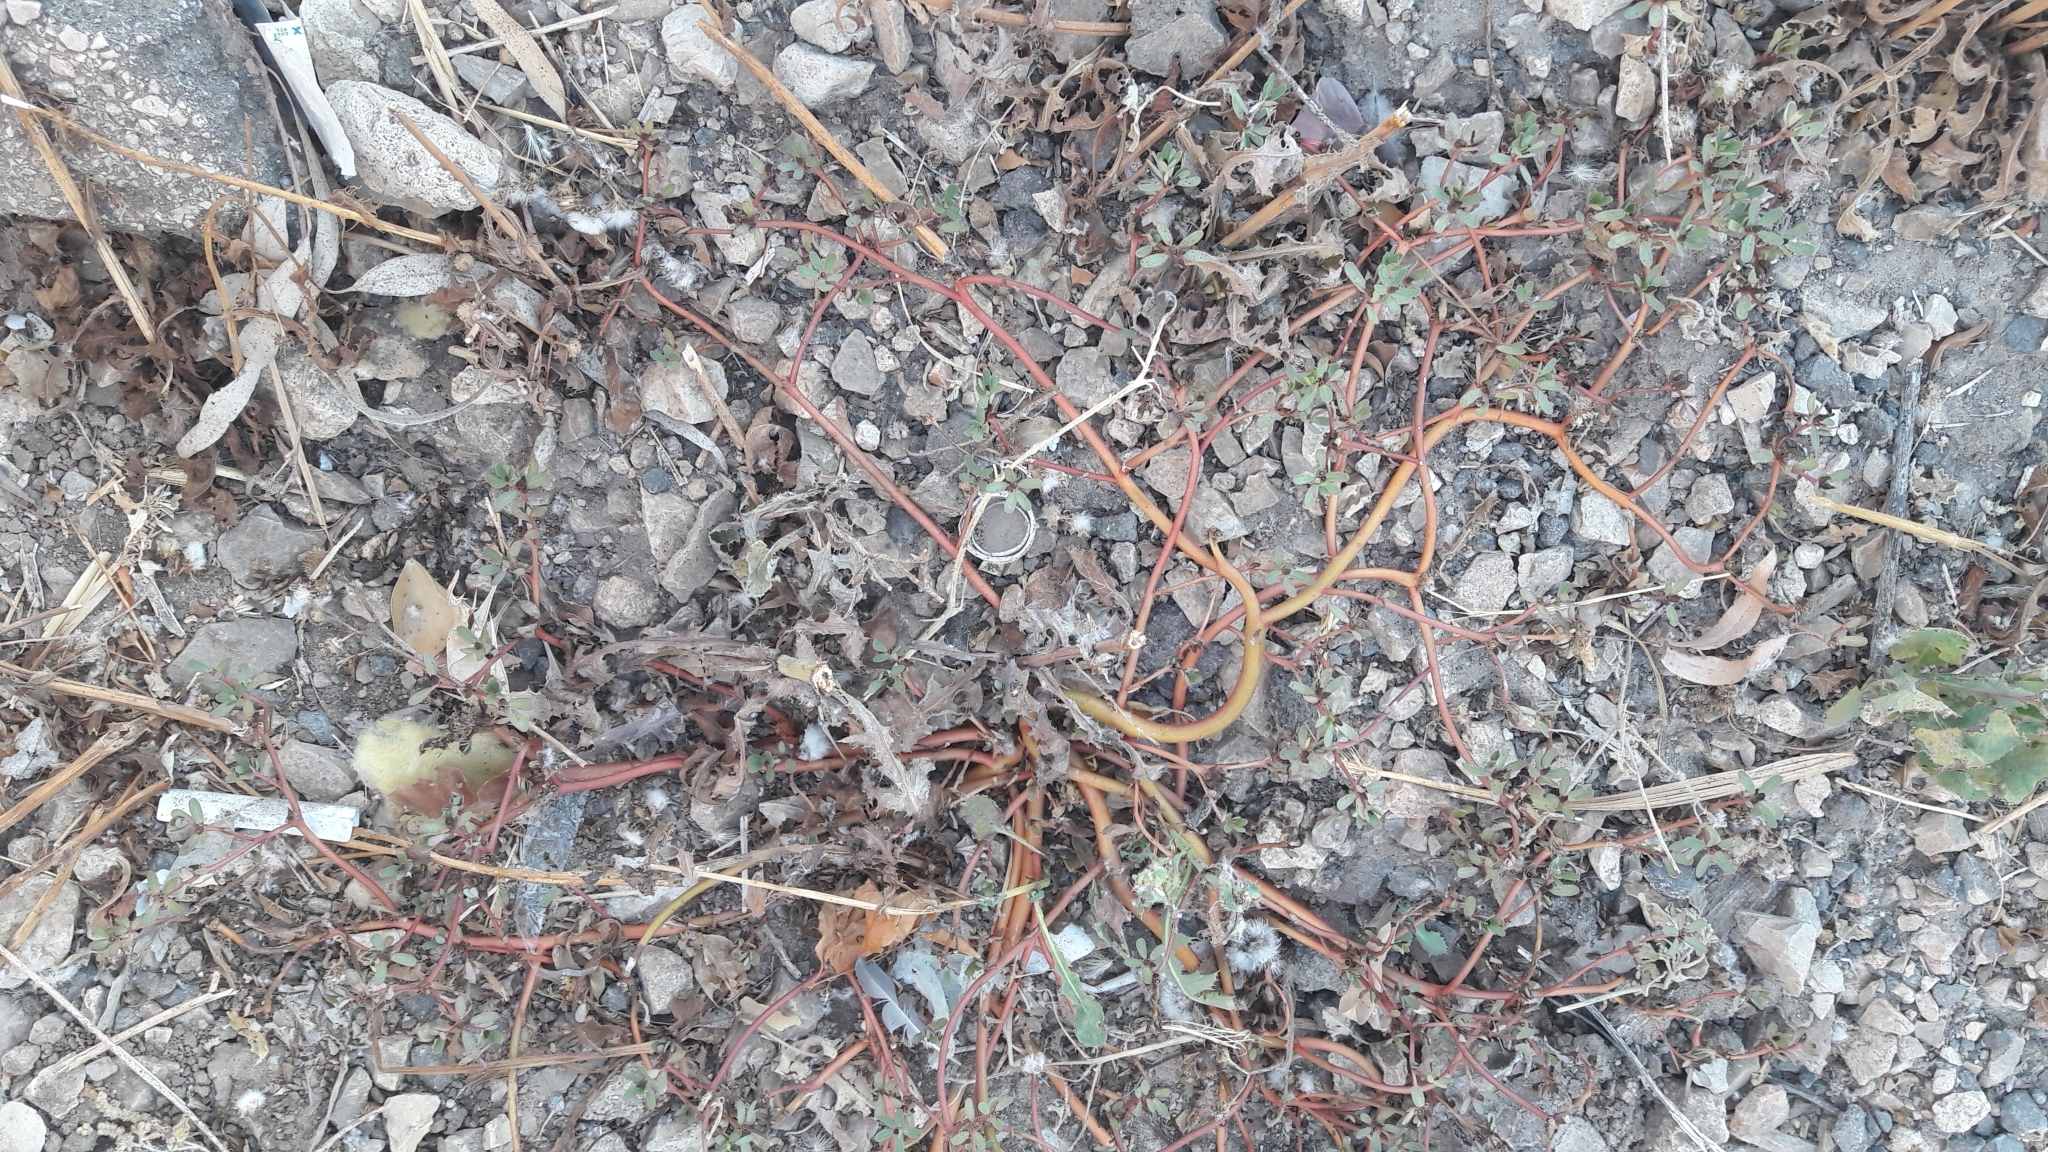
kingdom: Plantae
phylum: Tracheophyta
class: Magnoliopsida
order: Caryophyllales
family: Portulacaceae
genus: Portulaca
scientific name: Portulaca oleracea
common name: Common purslane
